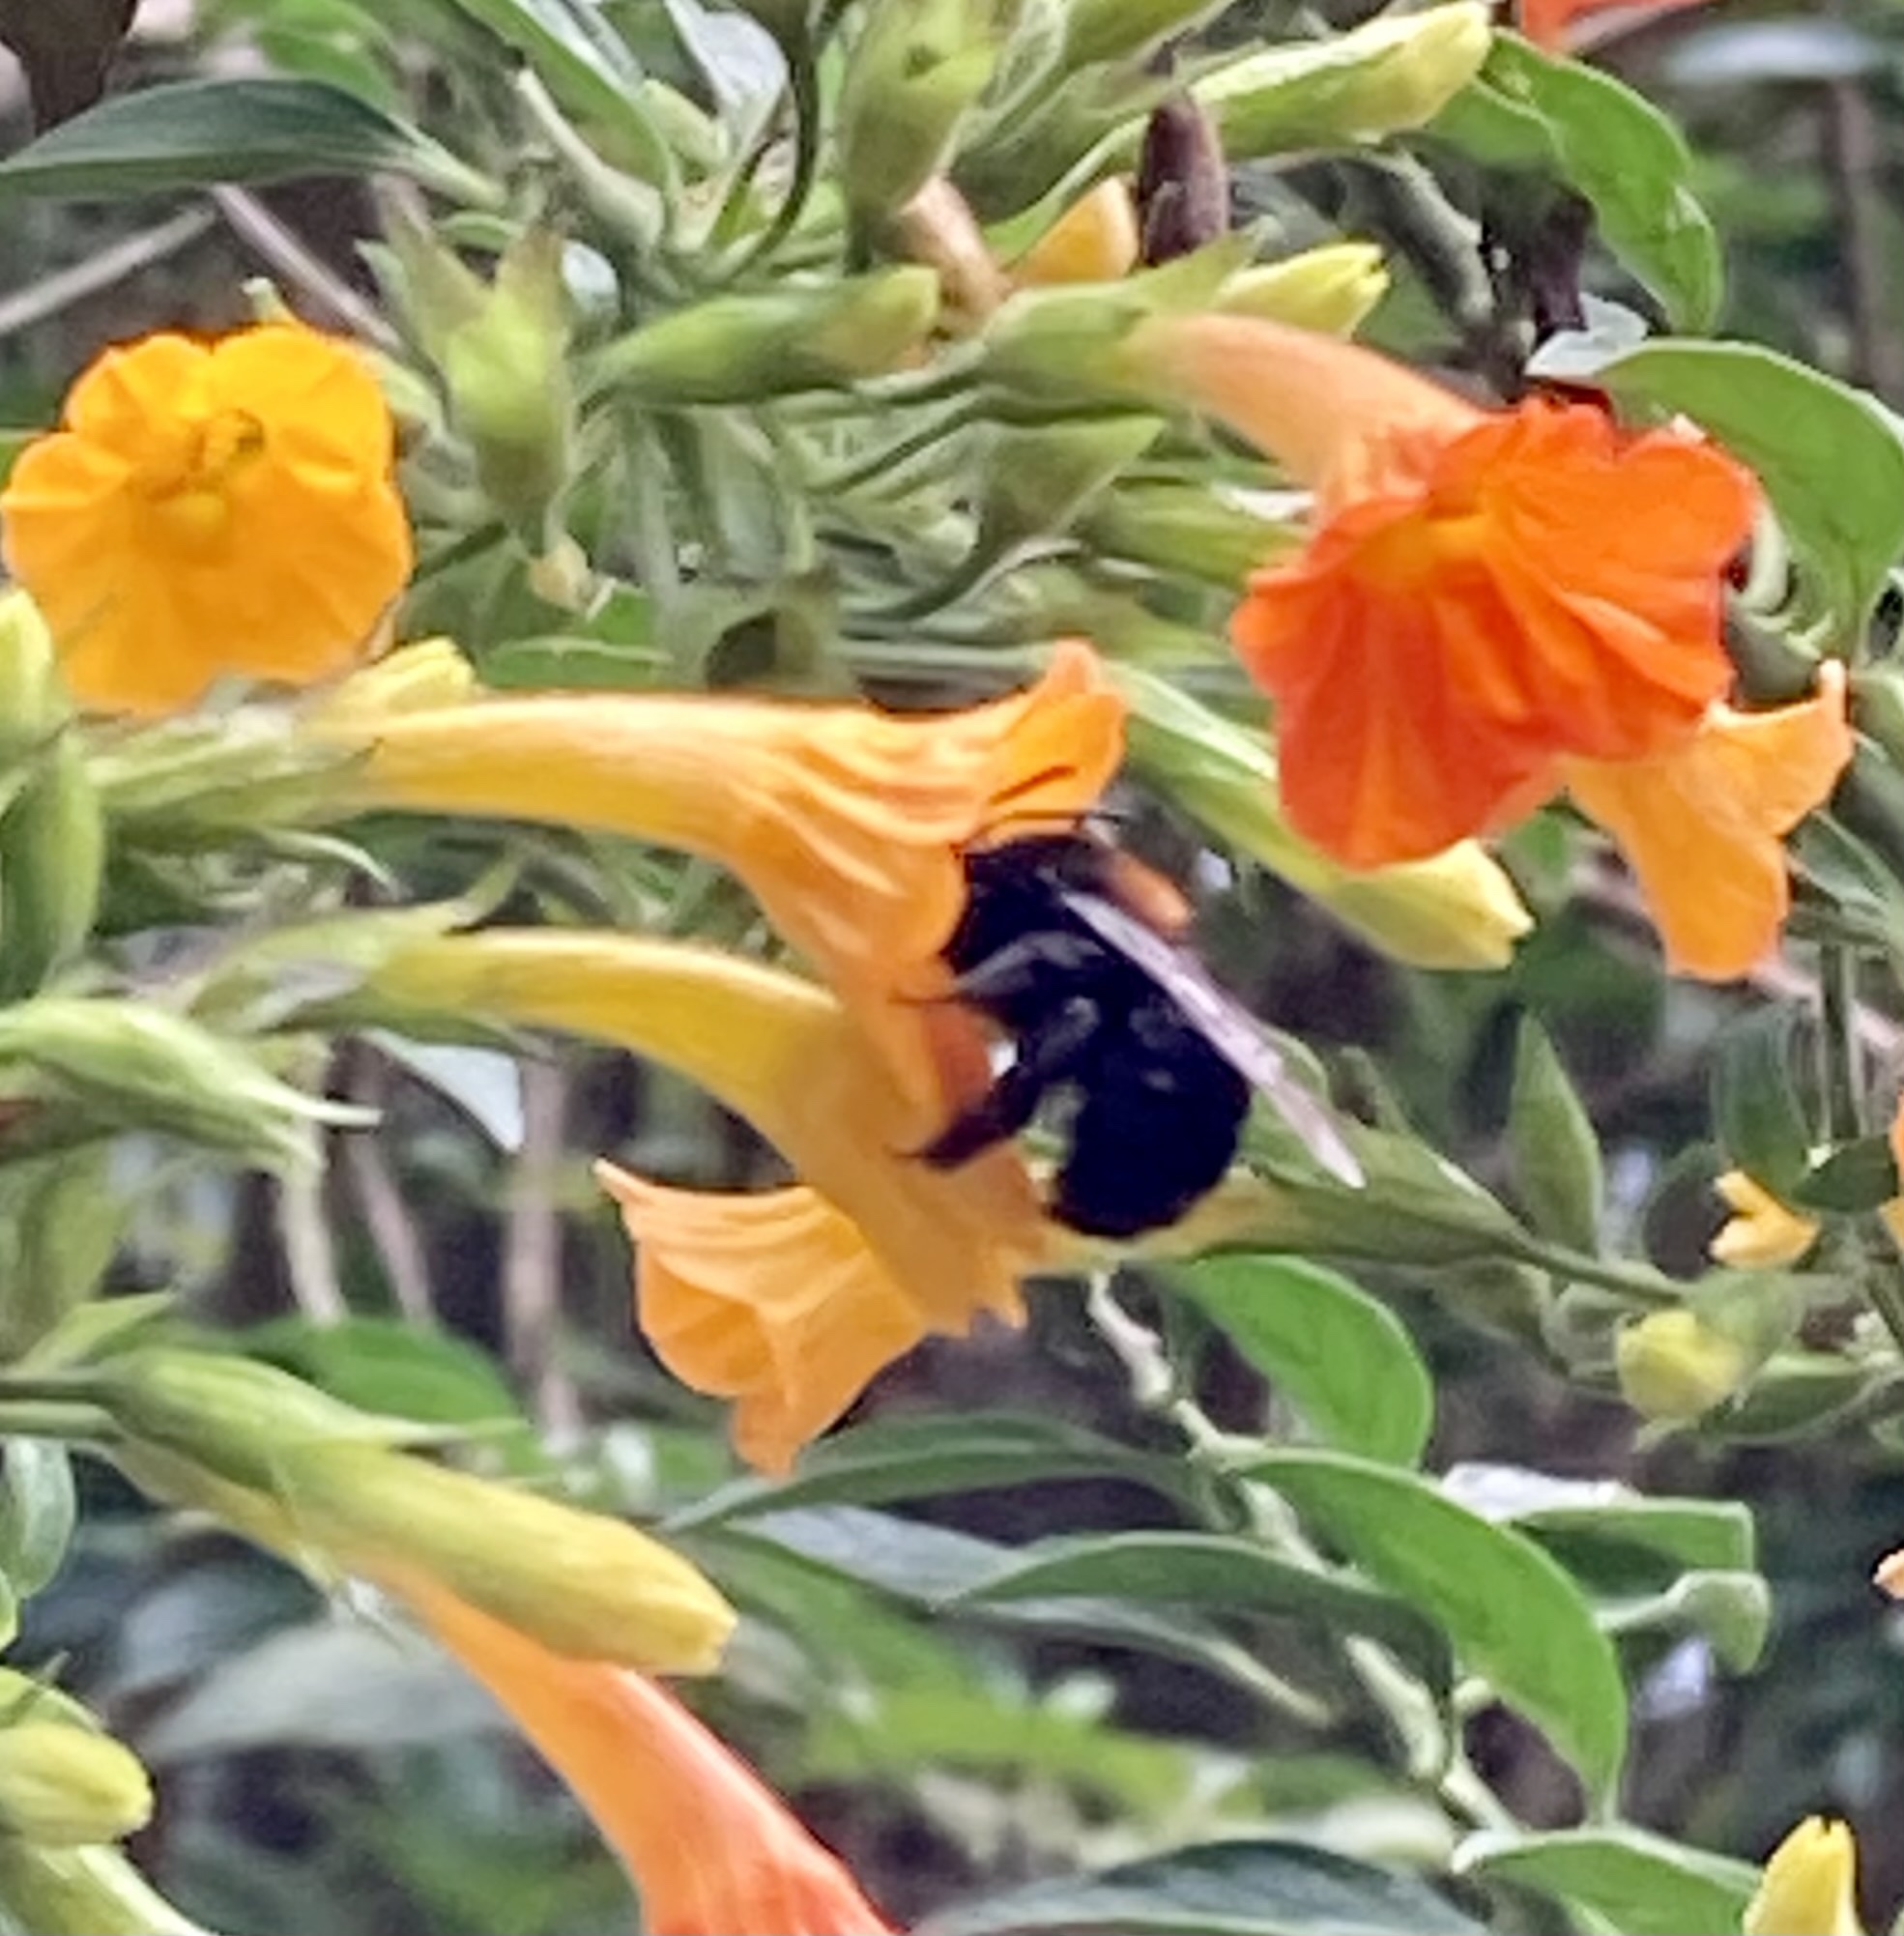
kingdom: Animalia
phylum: Arthropoda
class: Insecta
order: Hymenoptera
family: Apidae
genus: Thygater
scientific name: Thygater aethiops
